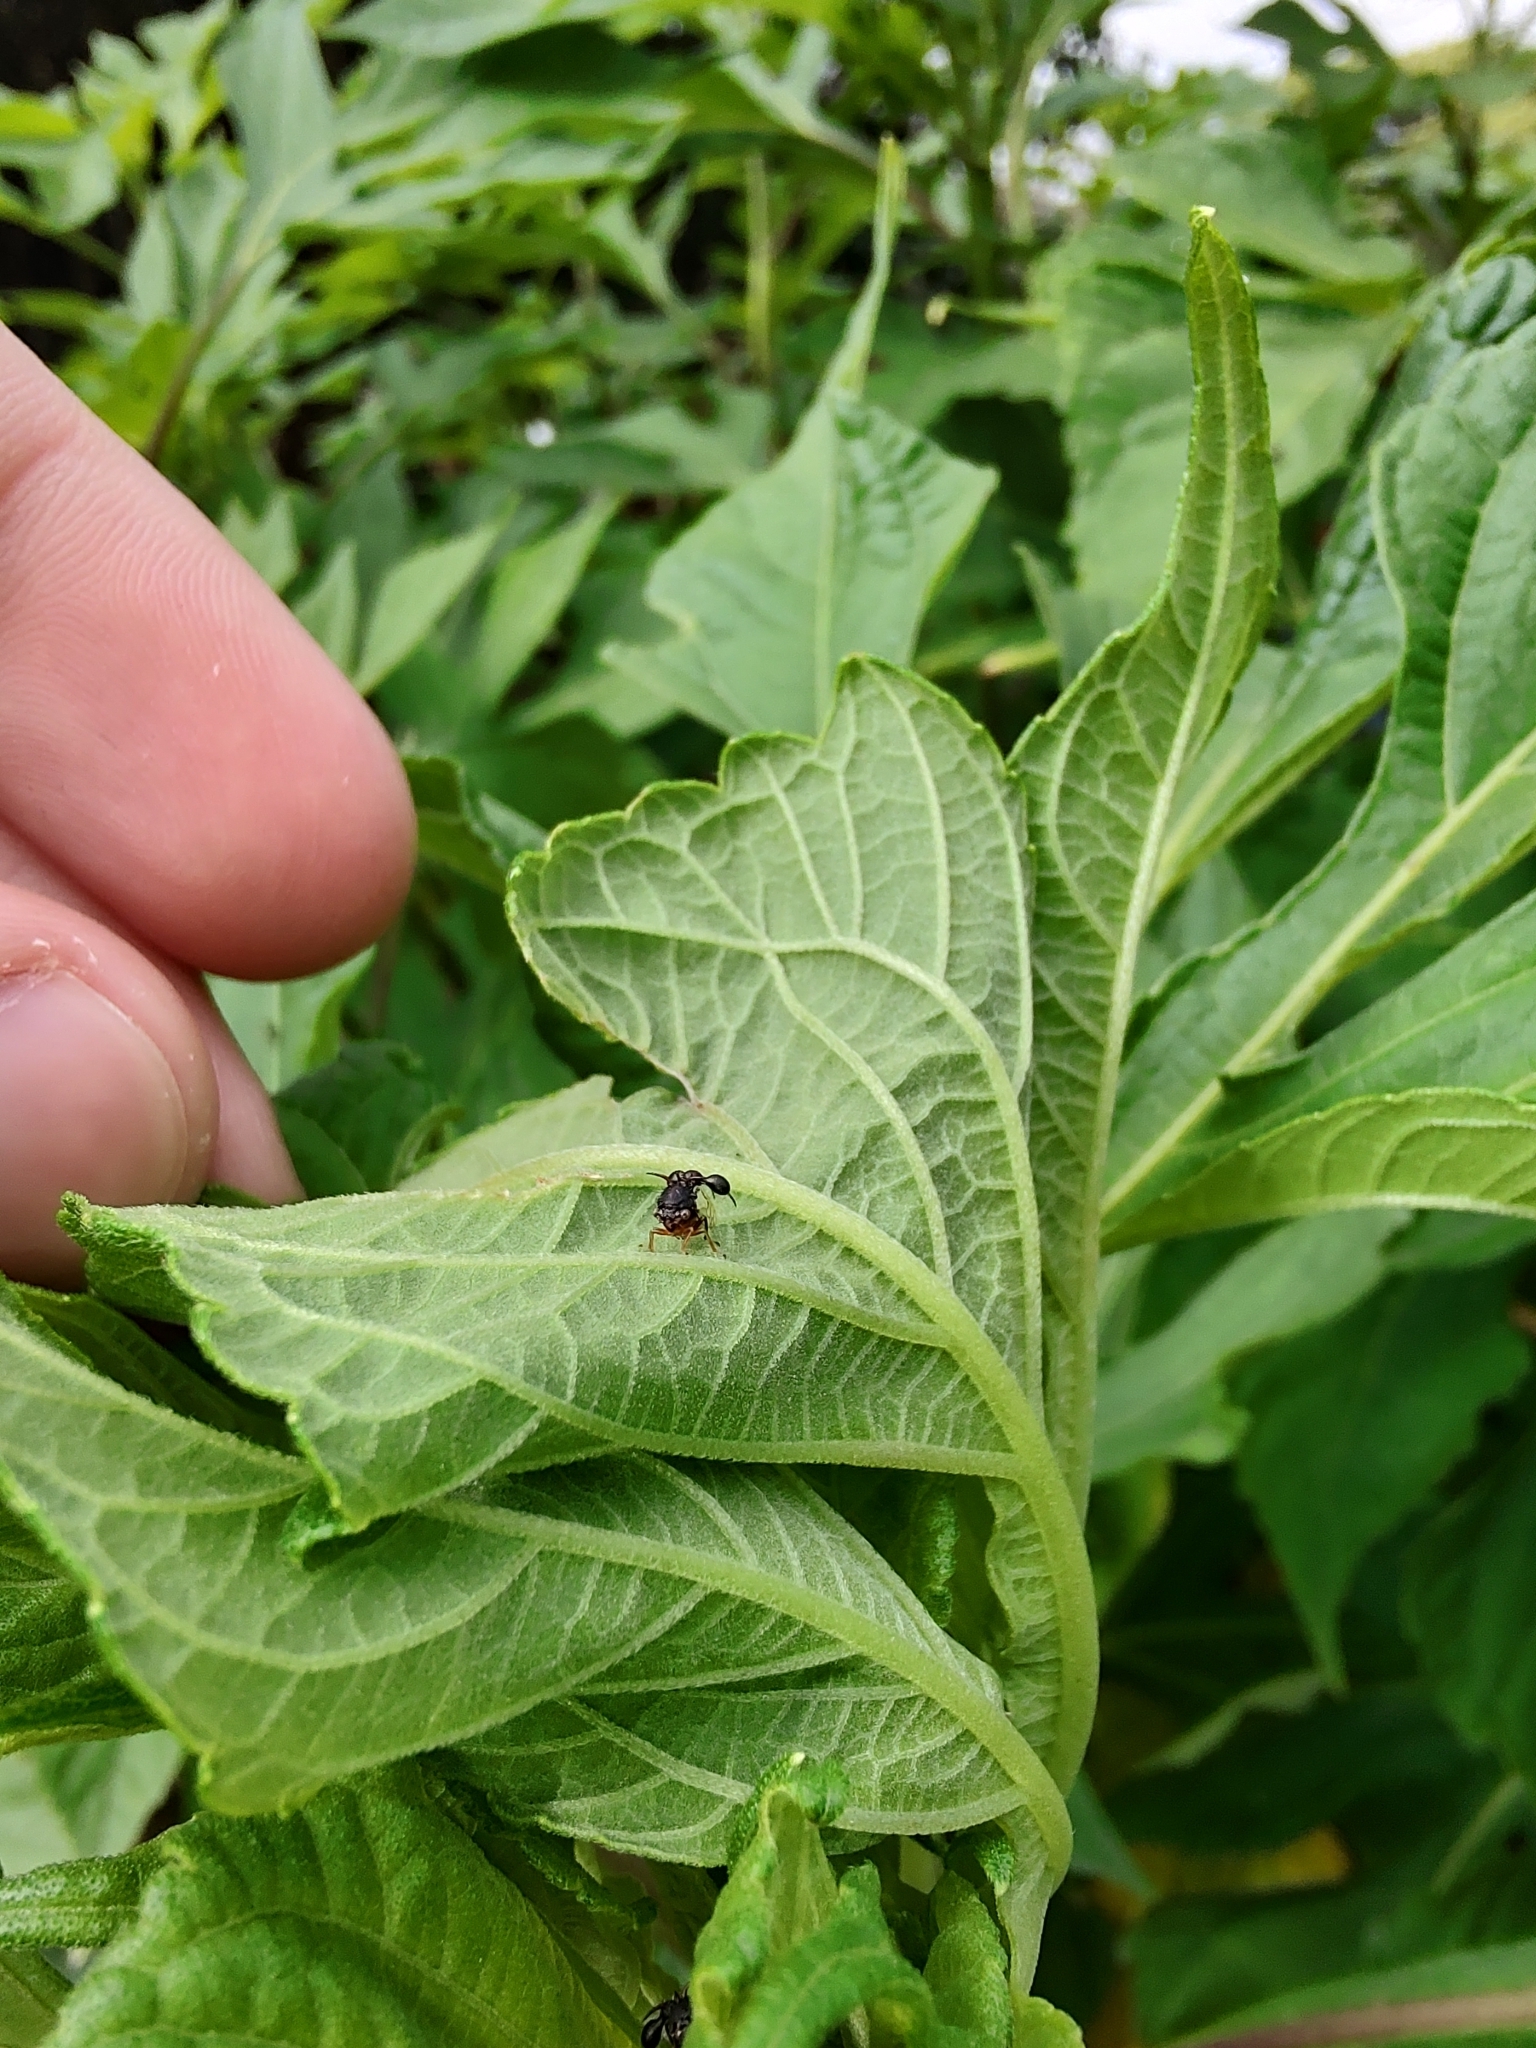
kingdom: Animalia
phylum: Arthropoda
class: Insecta
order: Hemiptera
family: Membracidae
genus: Cyphonia
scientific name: Cyphonia clavata
